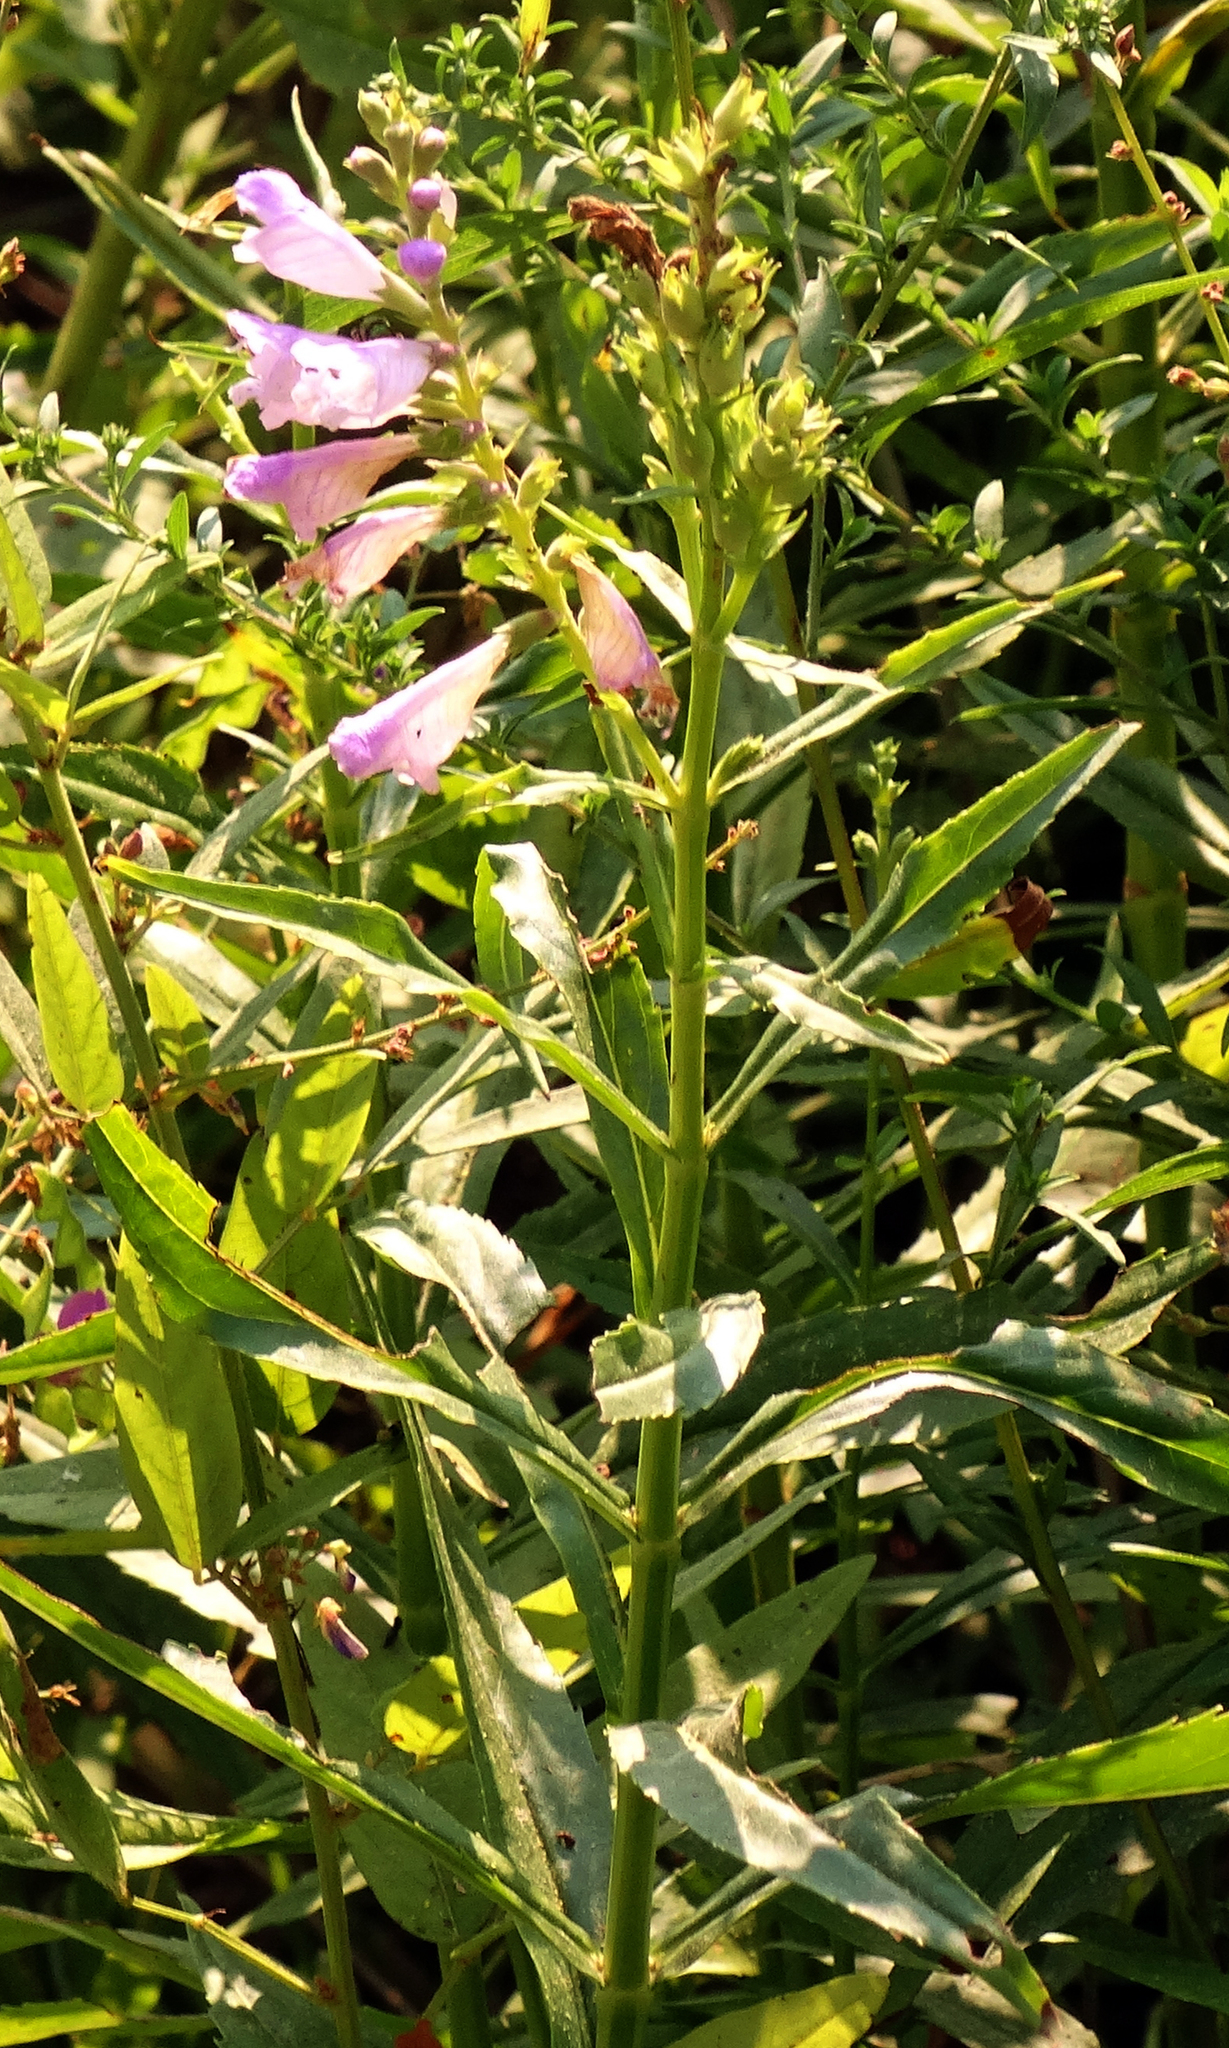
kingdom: Plantae
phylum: Tracheophyta
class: Magnoliopsida
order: Lamiales
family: Lamiaceae
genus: Physostegia
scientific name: Physostegia virginiana
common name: Obedient-plant
